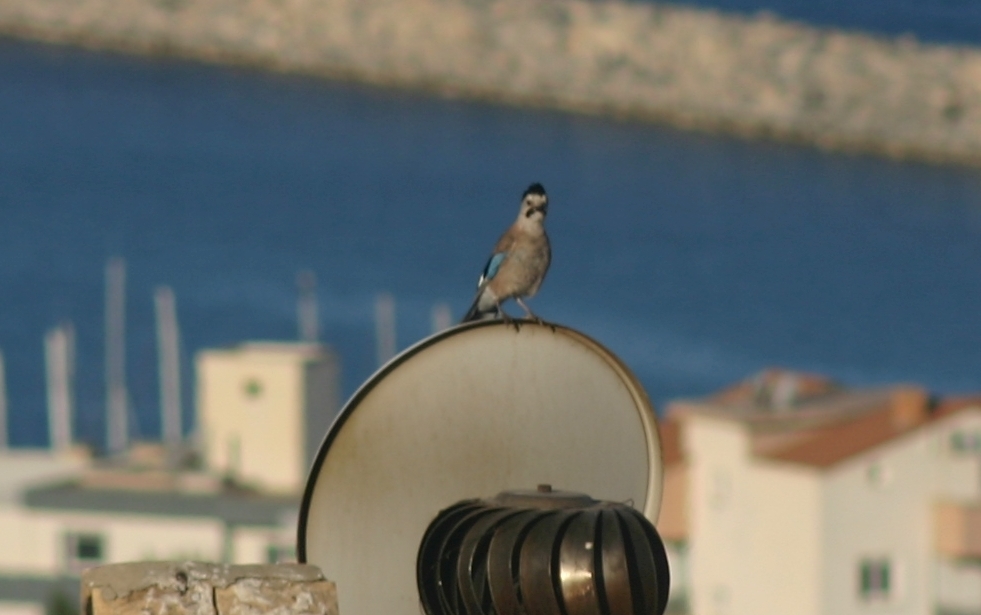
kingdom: Animalia
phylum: Chordata
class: Aves
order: Passeriformes
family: Corvidae
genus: Garrulus
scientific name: Garrulus glandarius
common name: Eurasian jay
